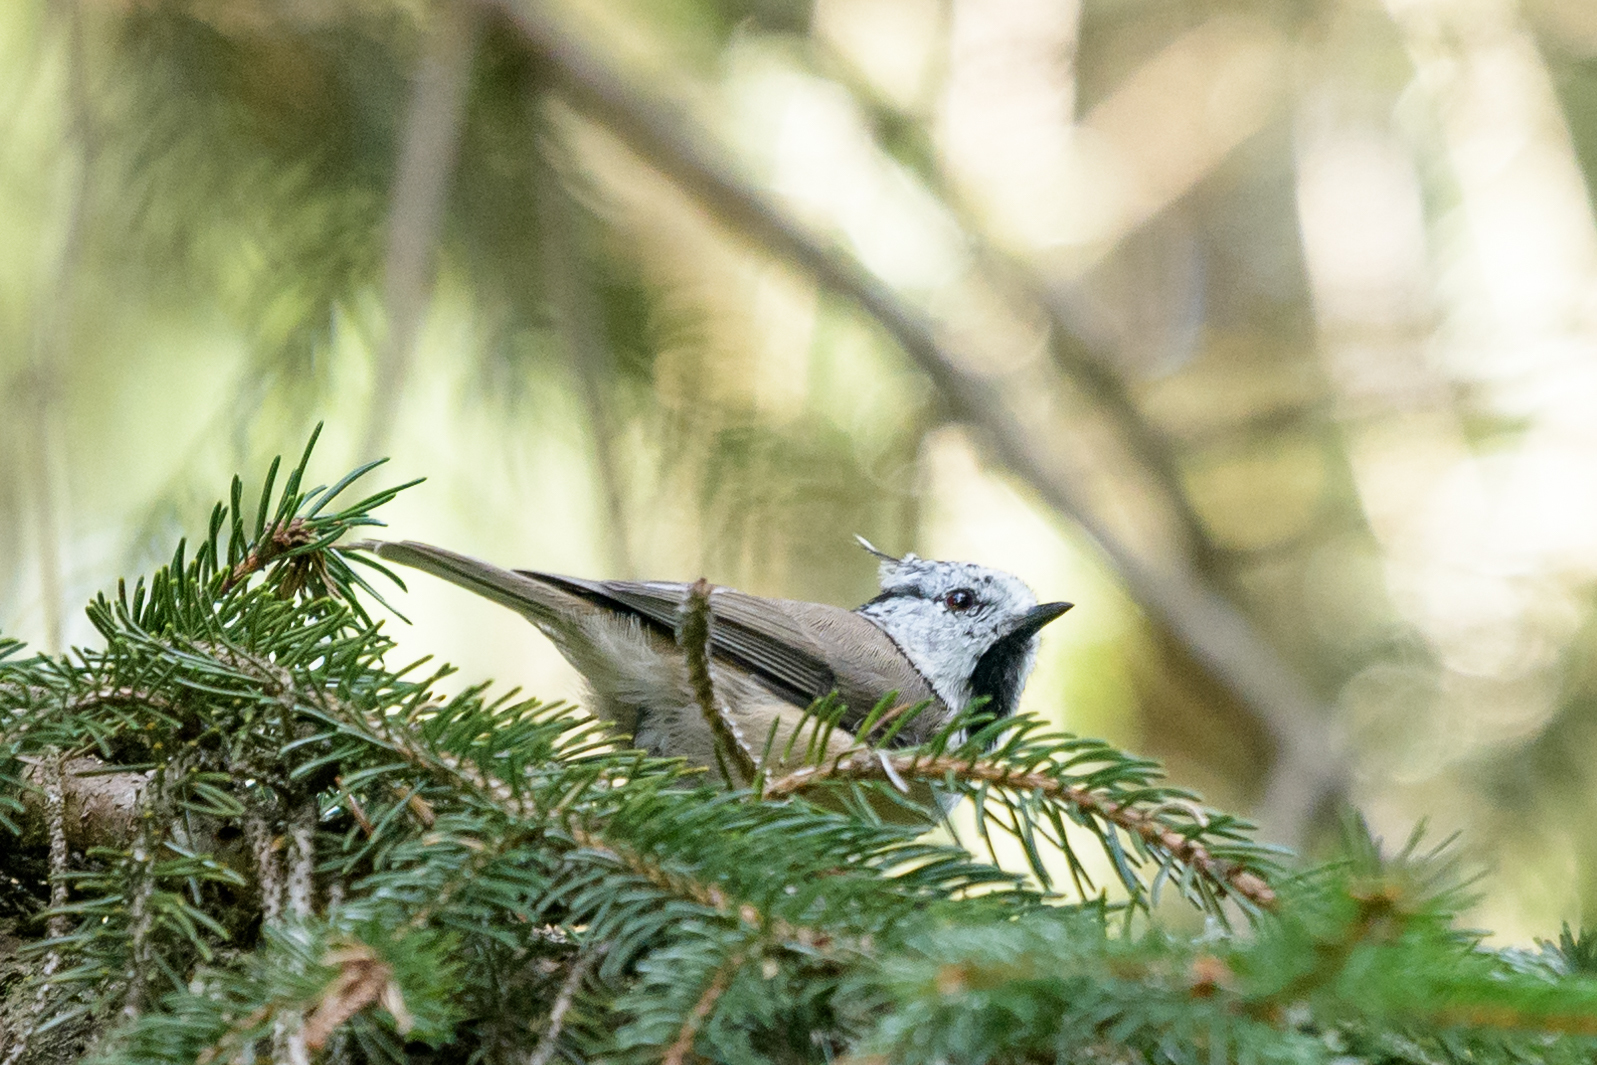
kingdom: Animalia
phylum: Chordata
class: Aves
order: Passeriformes
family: Paridae
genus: Lophophanes
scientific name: Lophophanes cristatus
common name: European crested tit
